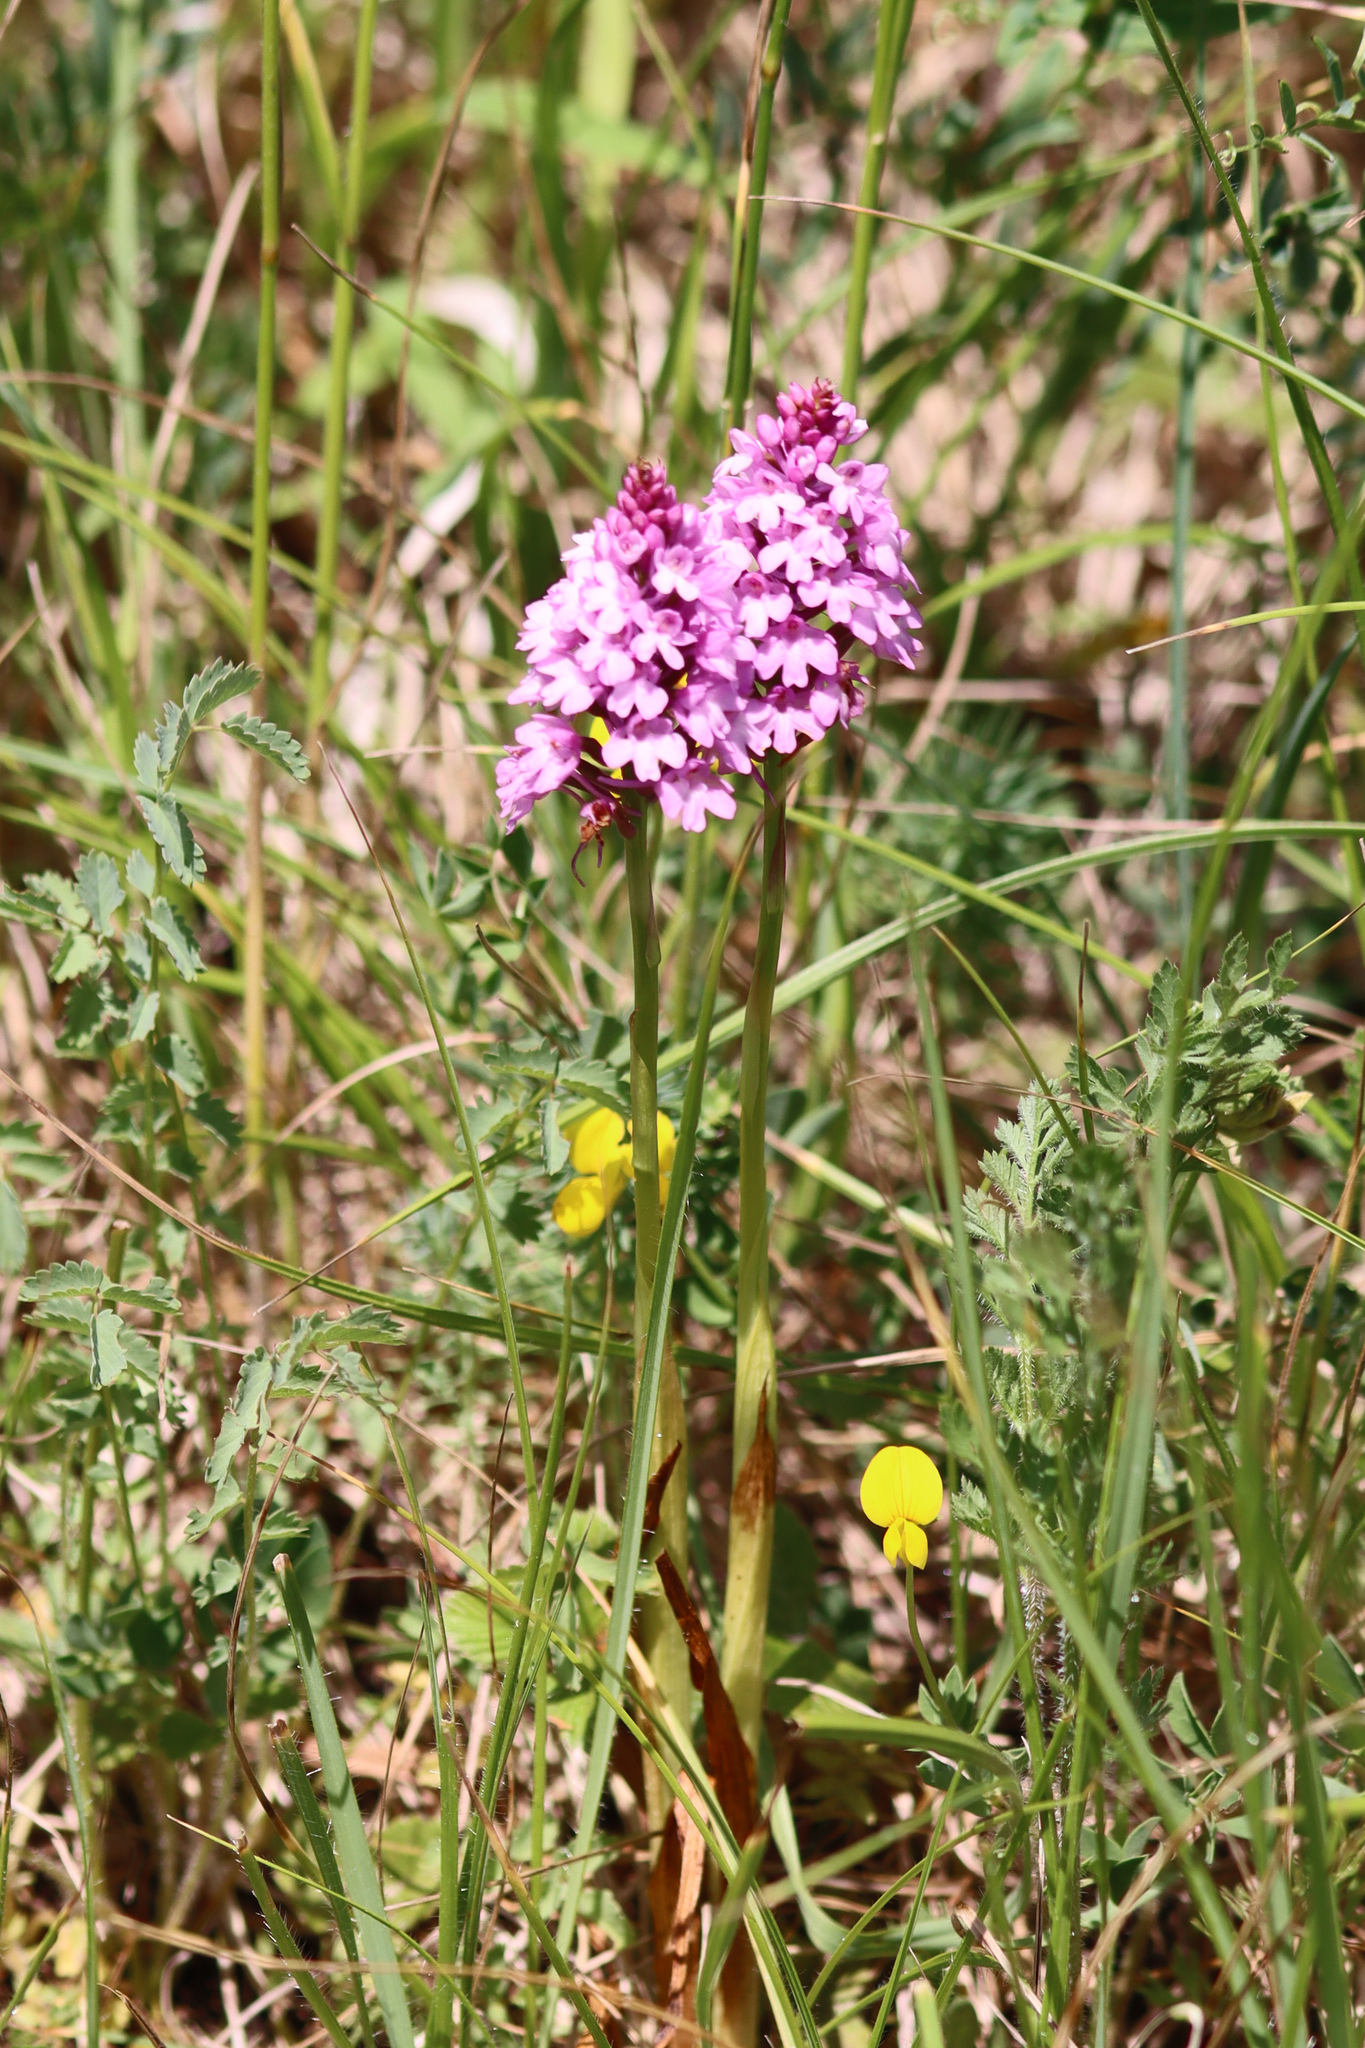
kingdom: Plantae
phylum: Tracheophyta
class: Liliopsida
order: Asparagales
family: Orchidaceae
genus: Anacamptis
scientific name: Anacamptis pyramidalis
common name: Pyramidal orchid
